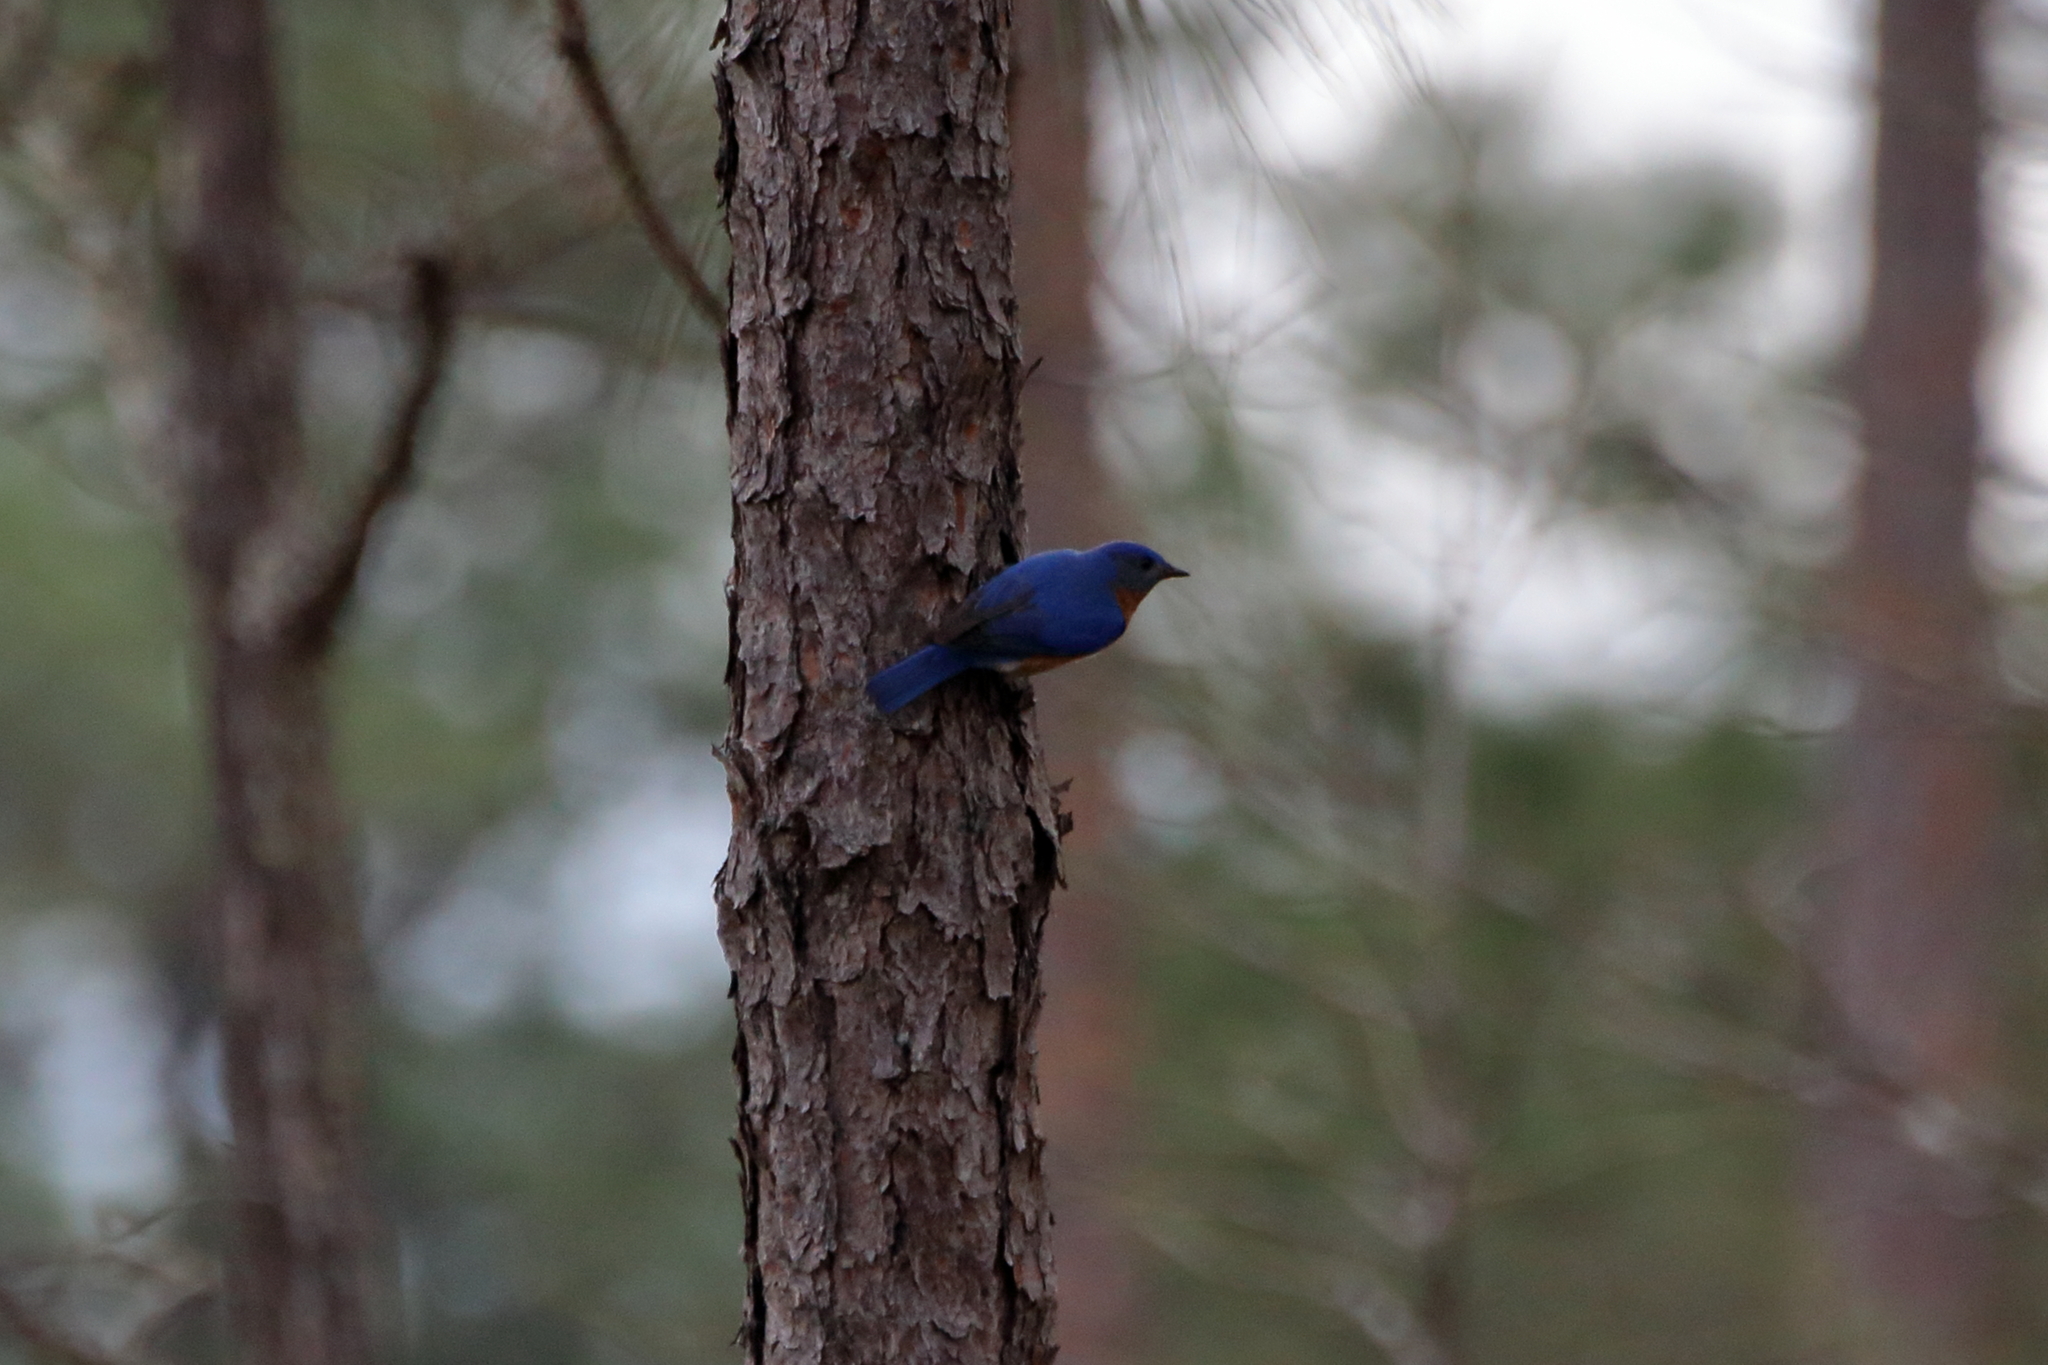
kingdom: Animalia
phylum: Chordata
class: Aves
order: Passeriformes
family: Turdidae
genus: Sialia
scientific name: Sialia sialis
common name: Eastern bluebird
